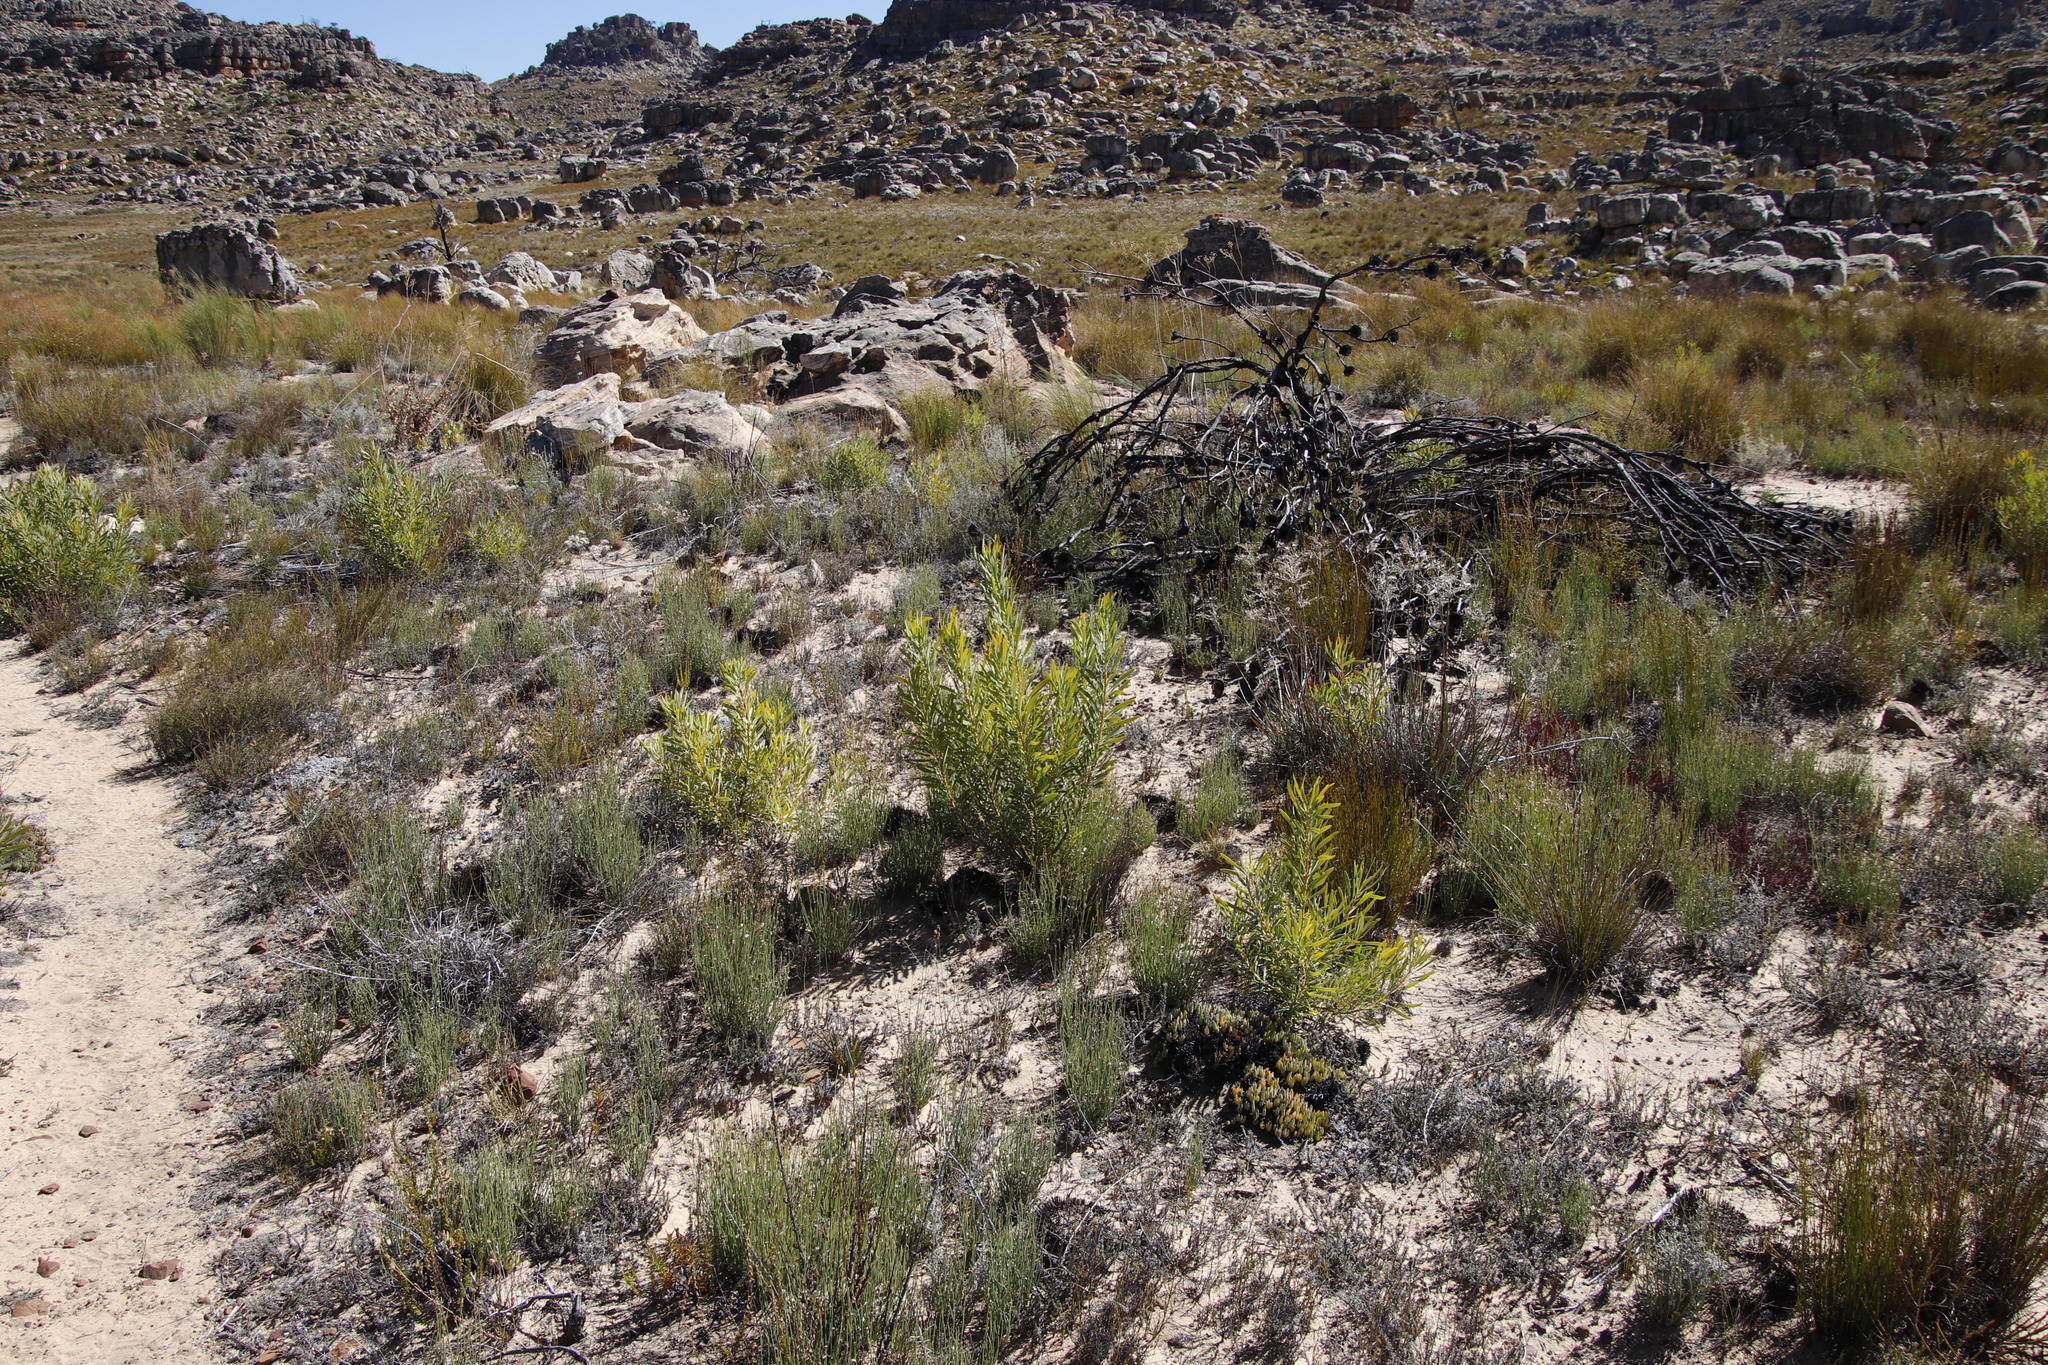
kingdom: Plantae
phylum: Tracheophyta
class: Magnoliopsida
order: Proteales
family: Proteaceae
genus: Protea
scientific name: Protea repens
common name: Sugarbush
